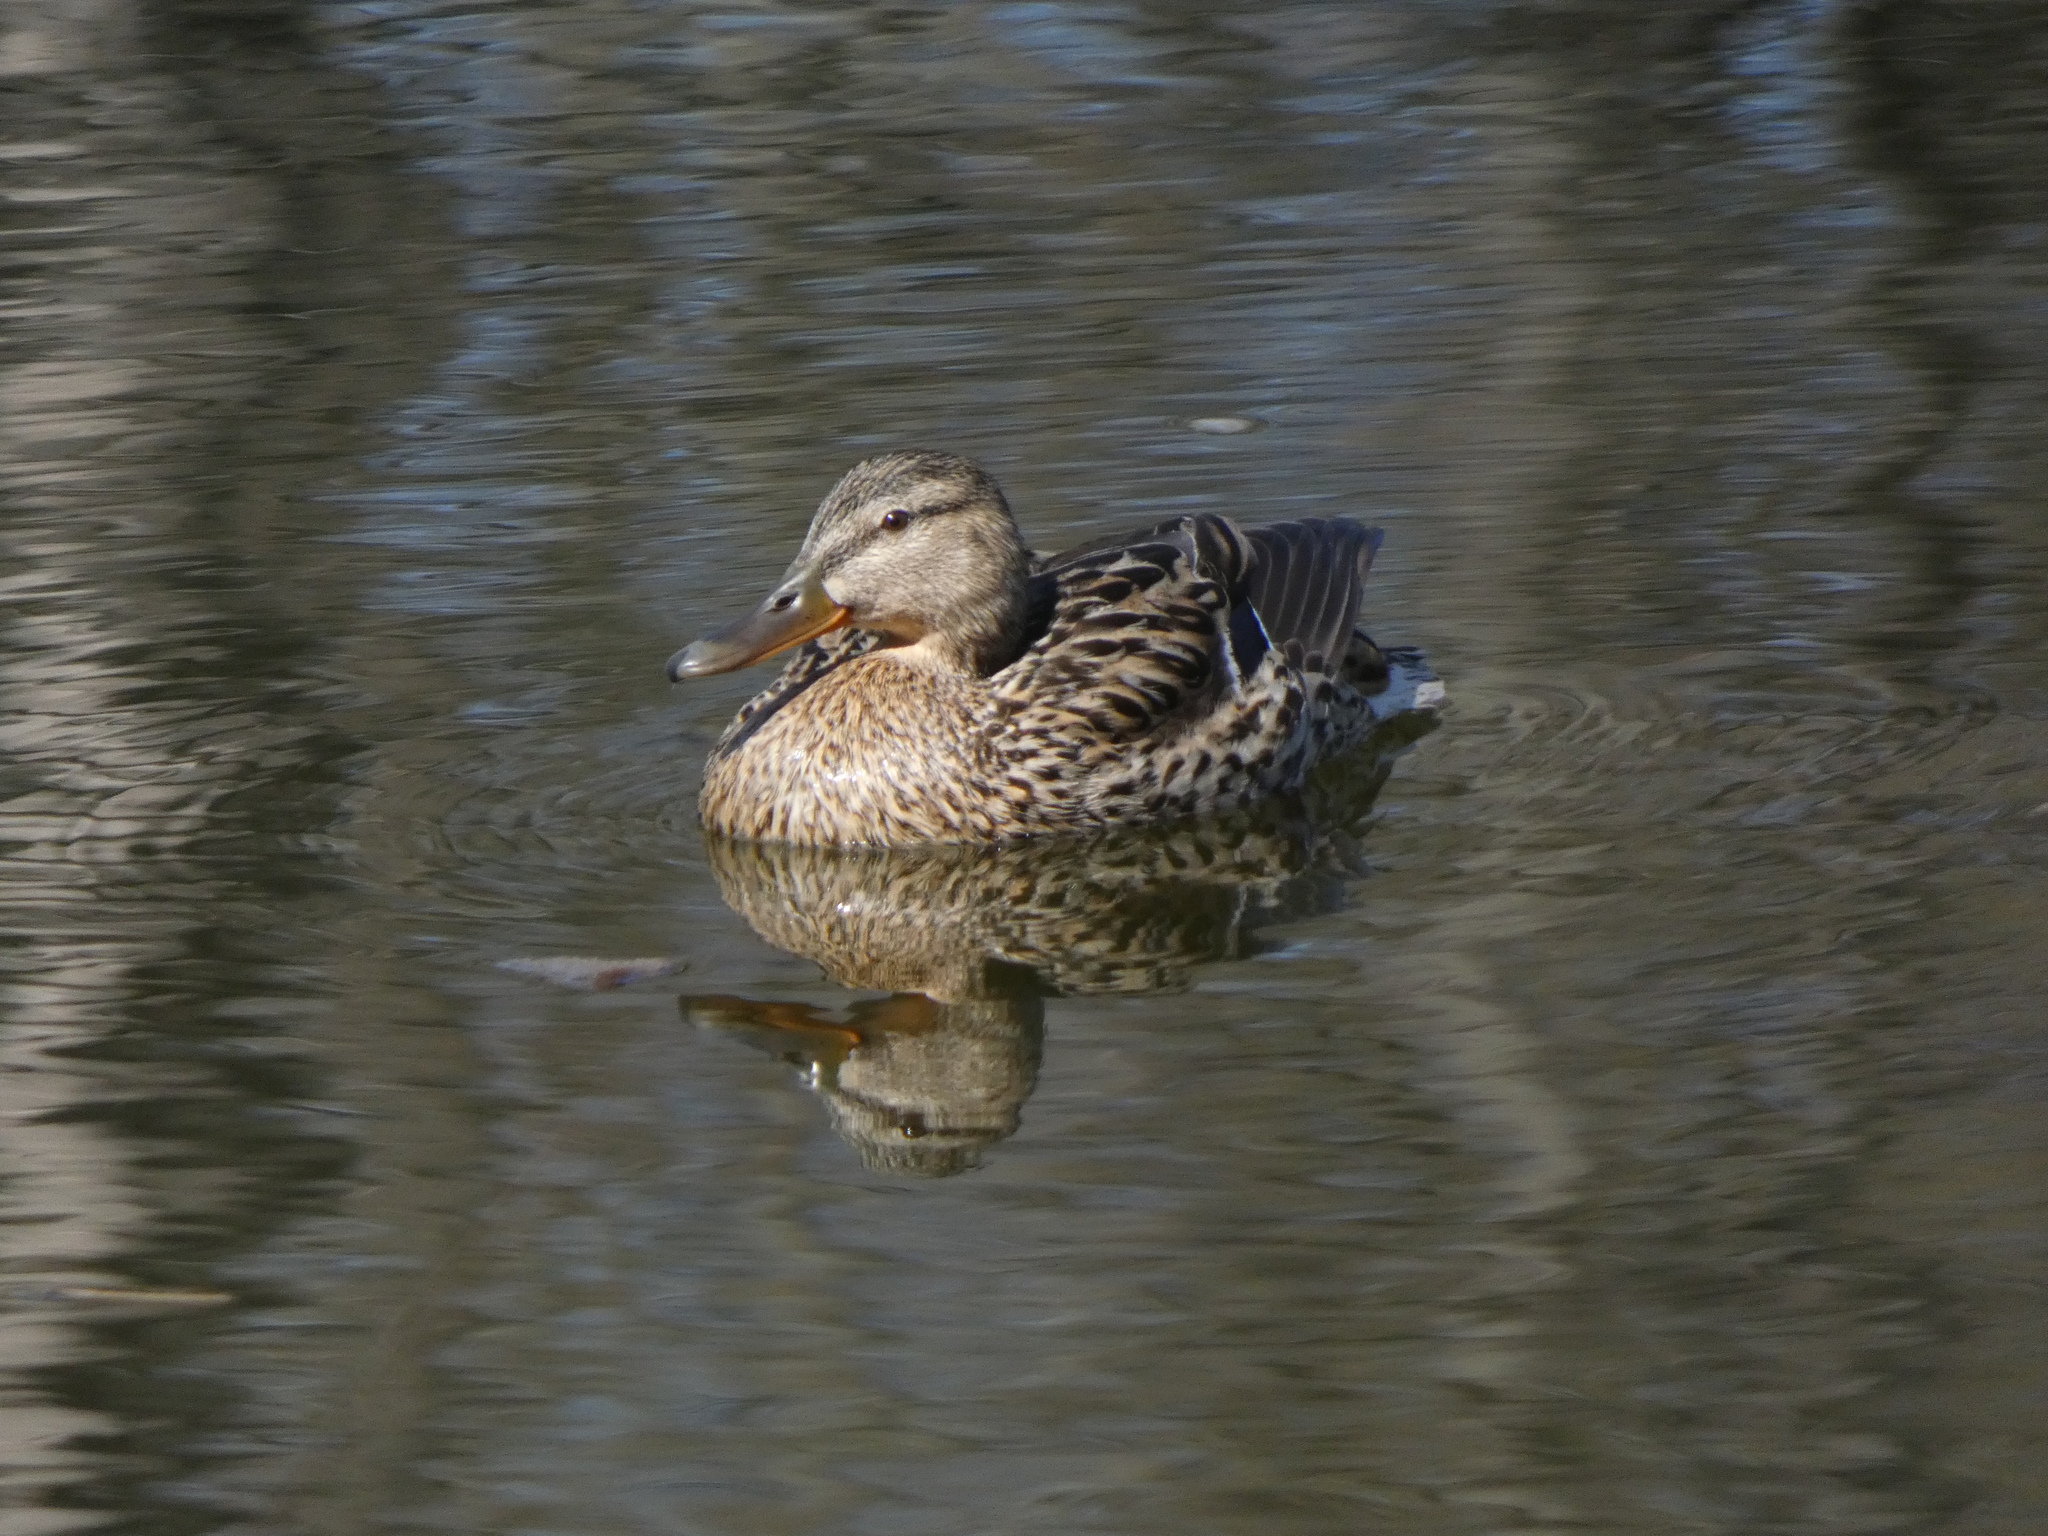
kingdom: Animalia
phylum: Chordata
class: Aves
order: Anseriformes
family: Anatidae
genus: Anas
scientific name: Anas platyrhynchos
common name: Mallard
